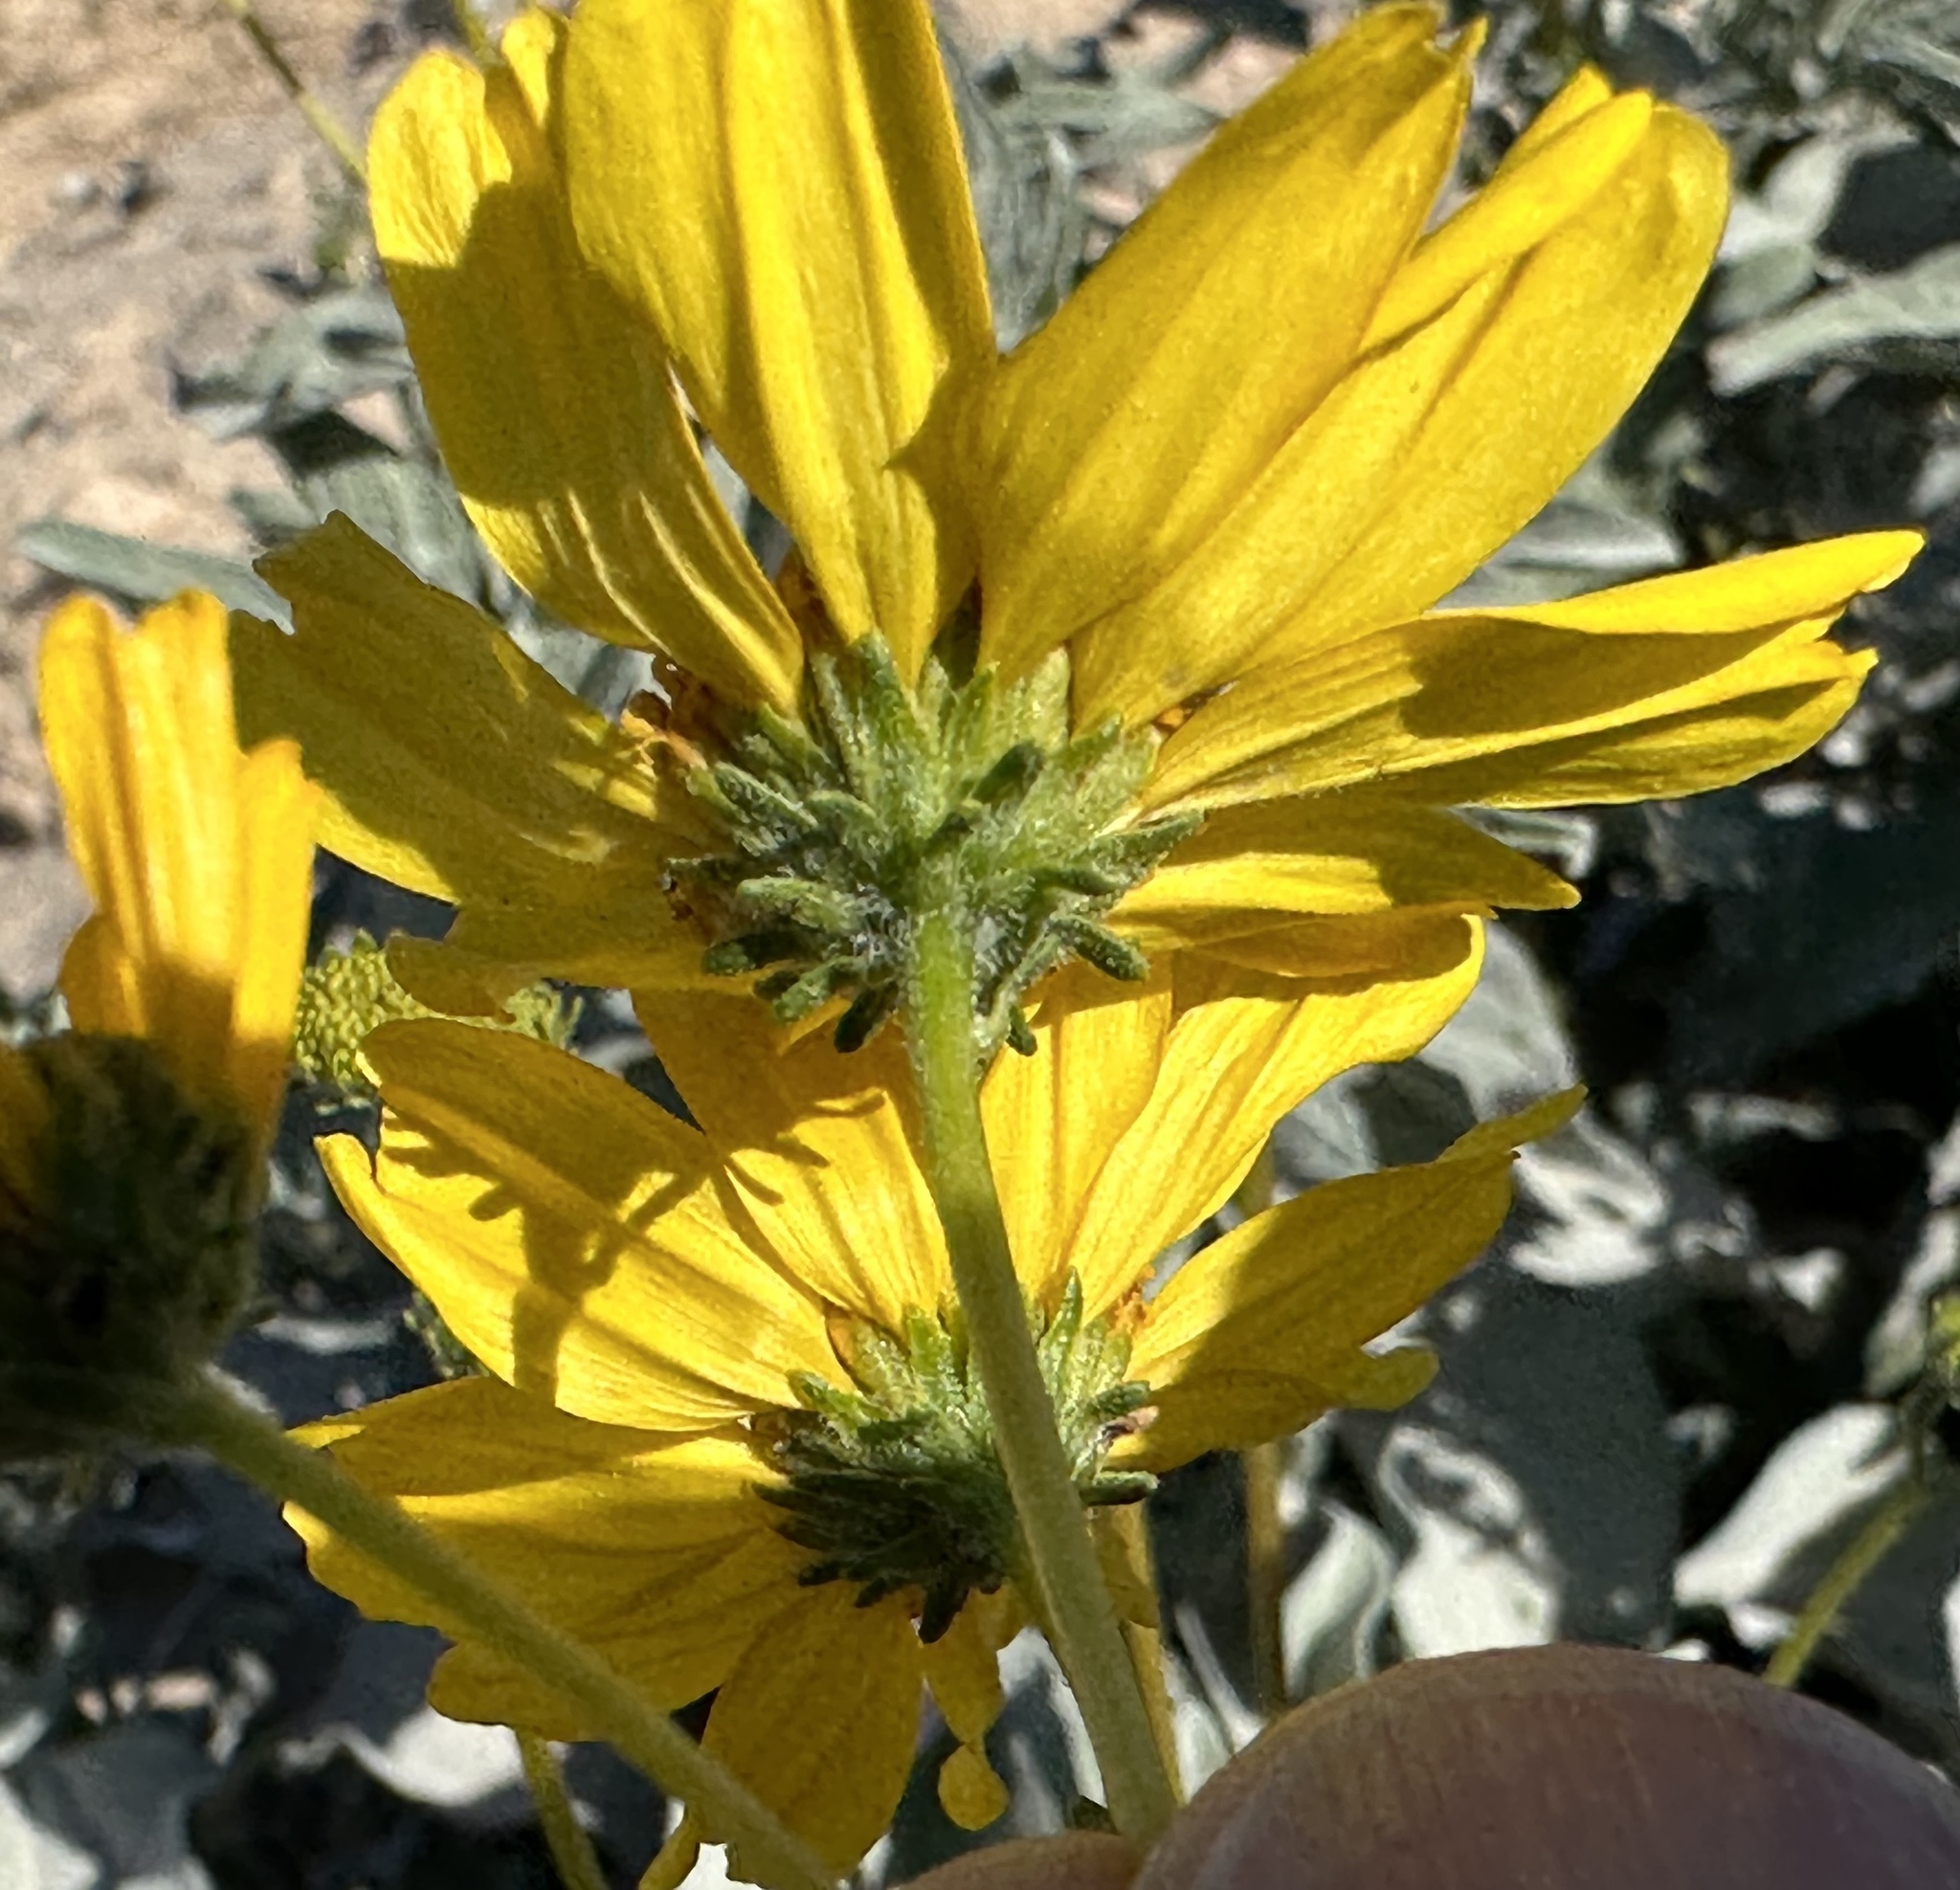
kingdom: Plantae
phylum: Tracheophyta
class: Magnoliopsida
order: Asterales
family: Asteraceae
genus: Encelia
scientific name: Encelia farinosa
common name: Brittlebush
